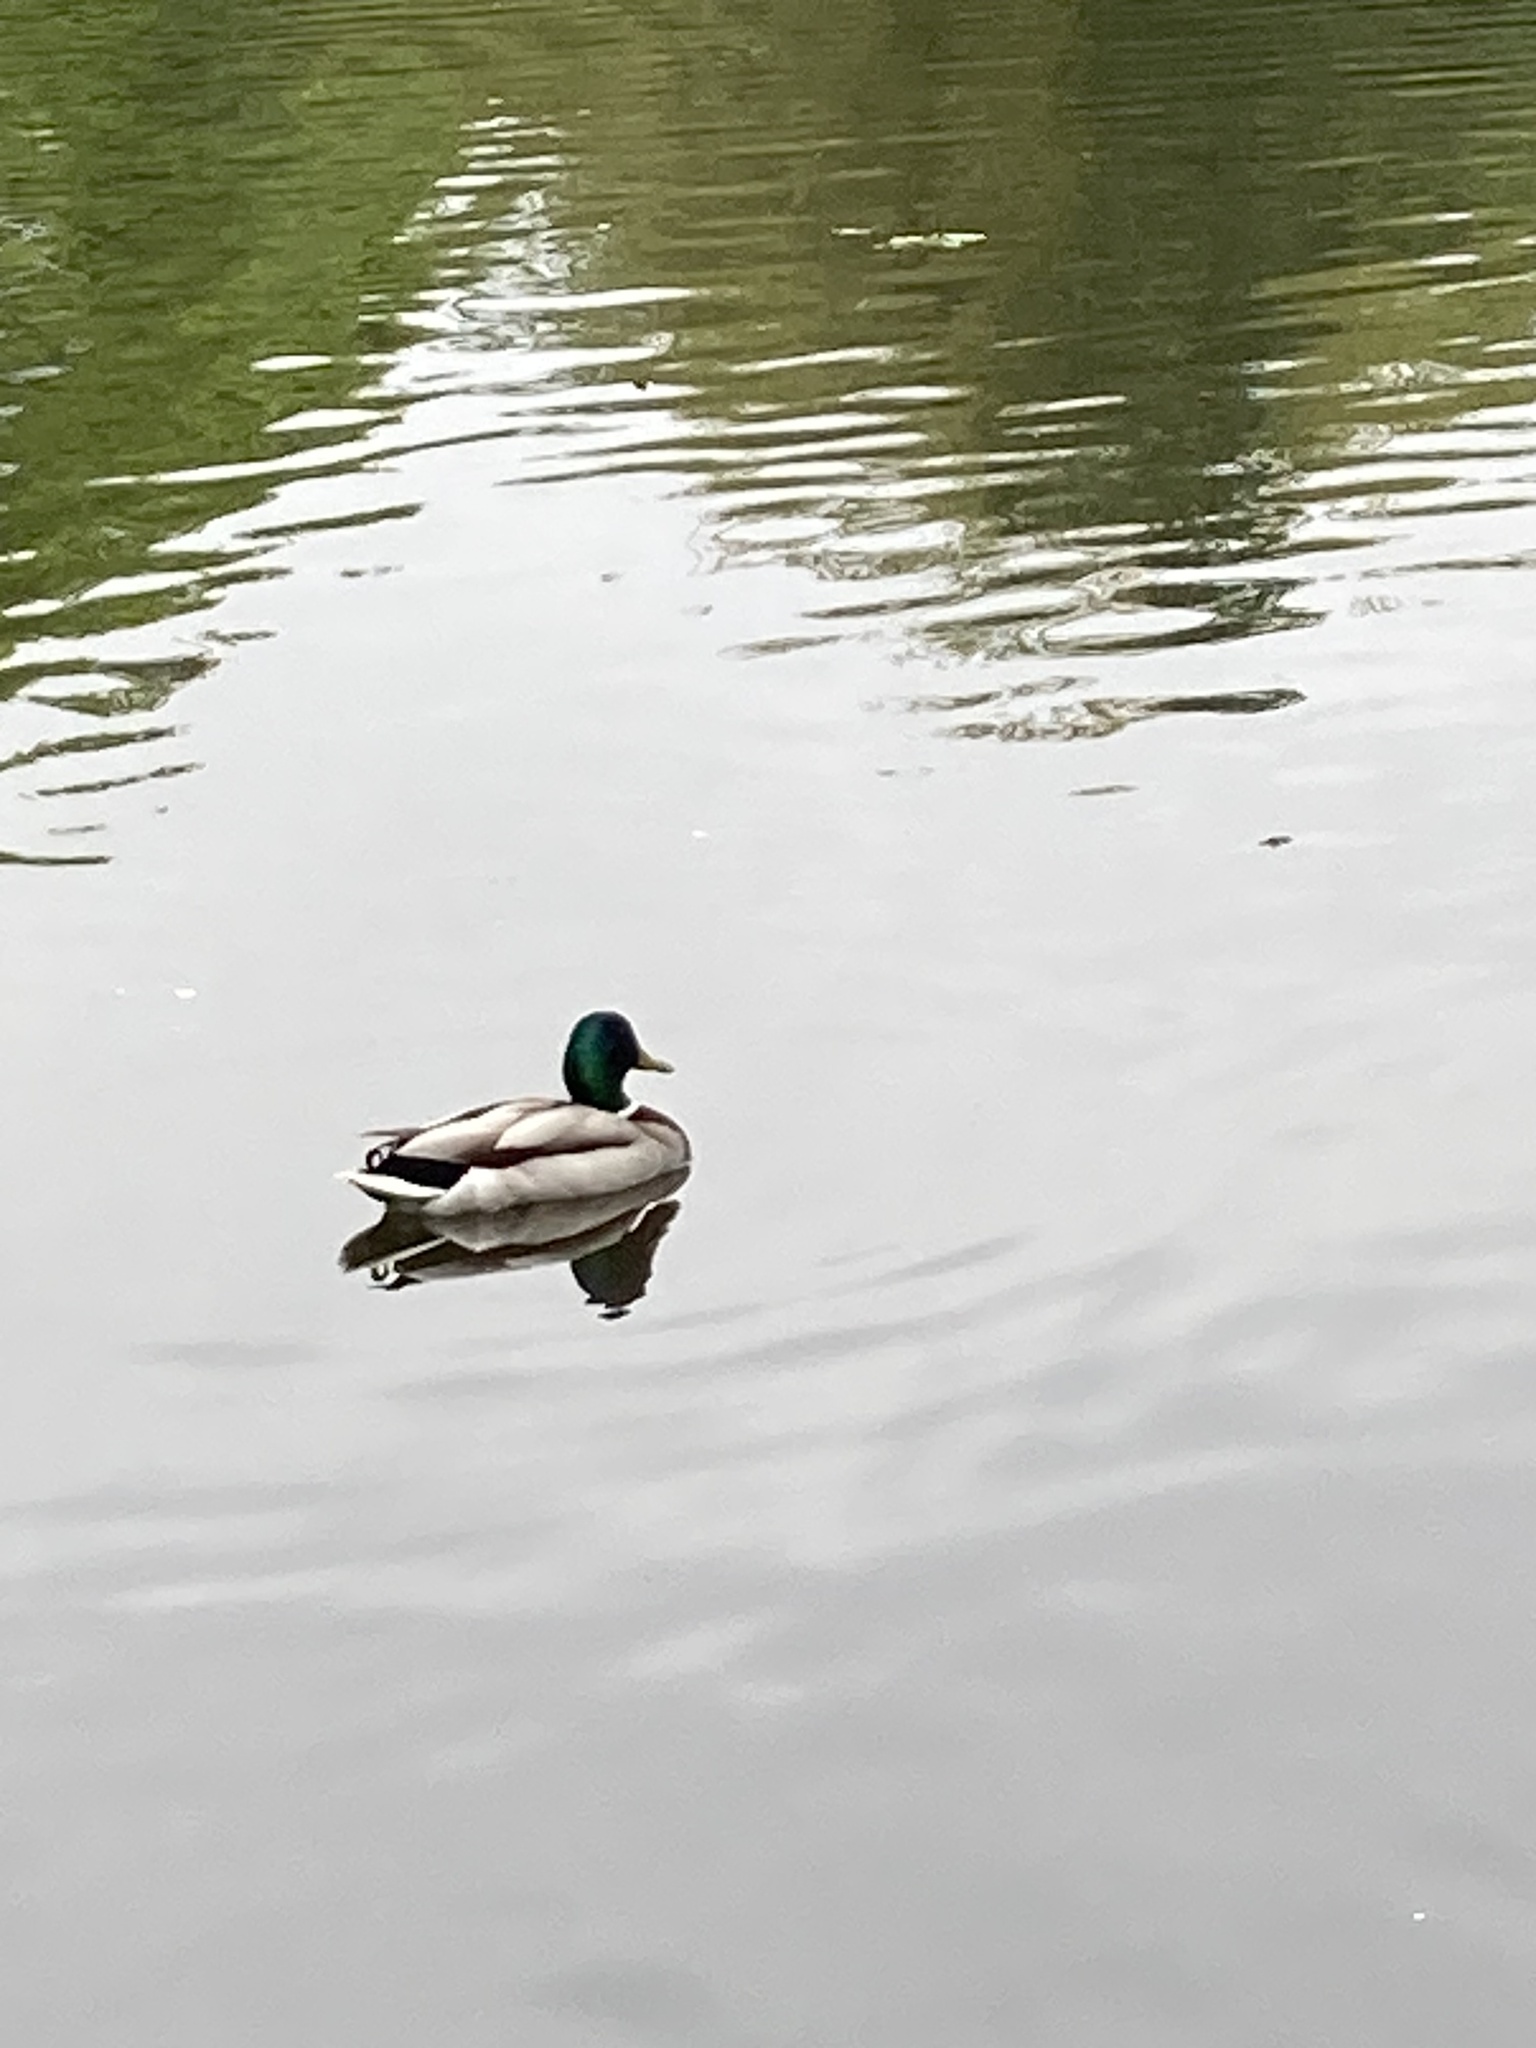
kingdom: Animalia
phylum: Chordata
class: Aves
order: Anseriformes
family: Anatidae
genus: Anas
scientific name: Anas platyrhynchos
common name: Mallard
